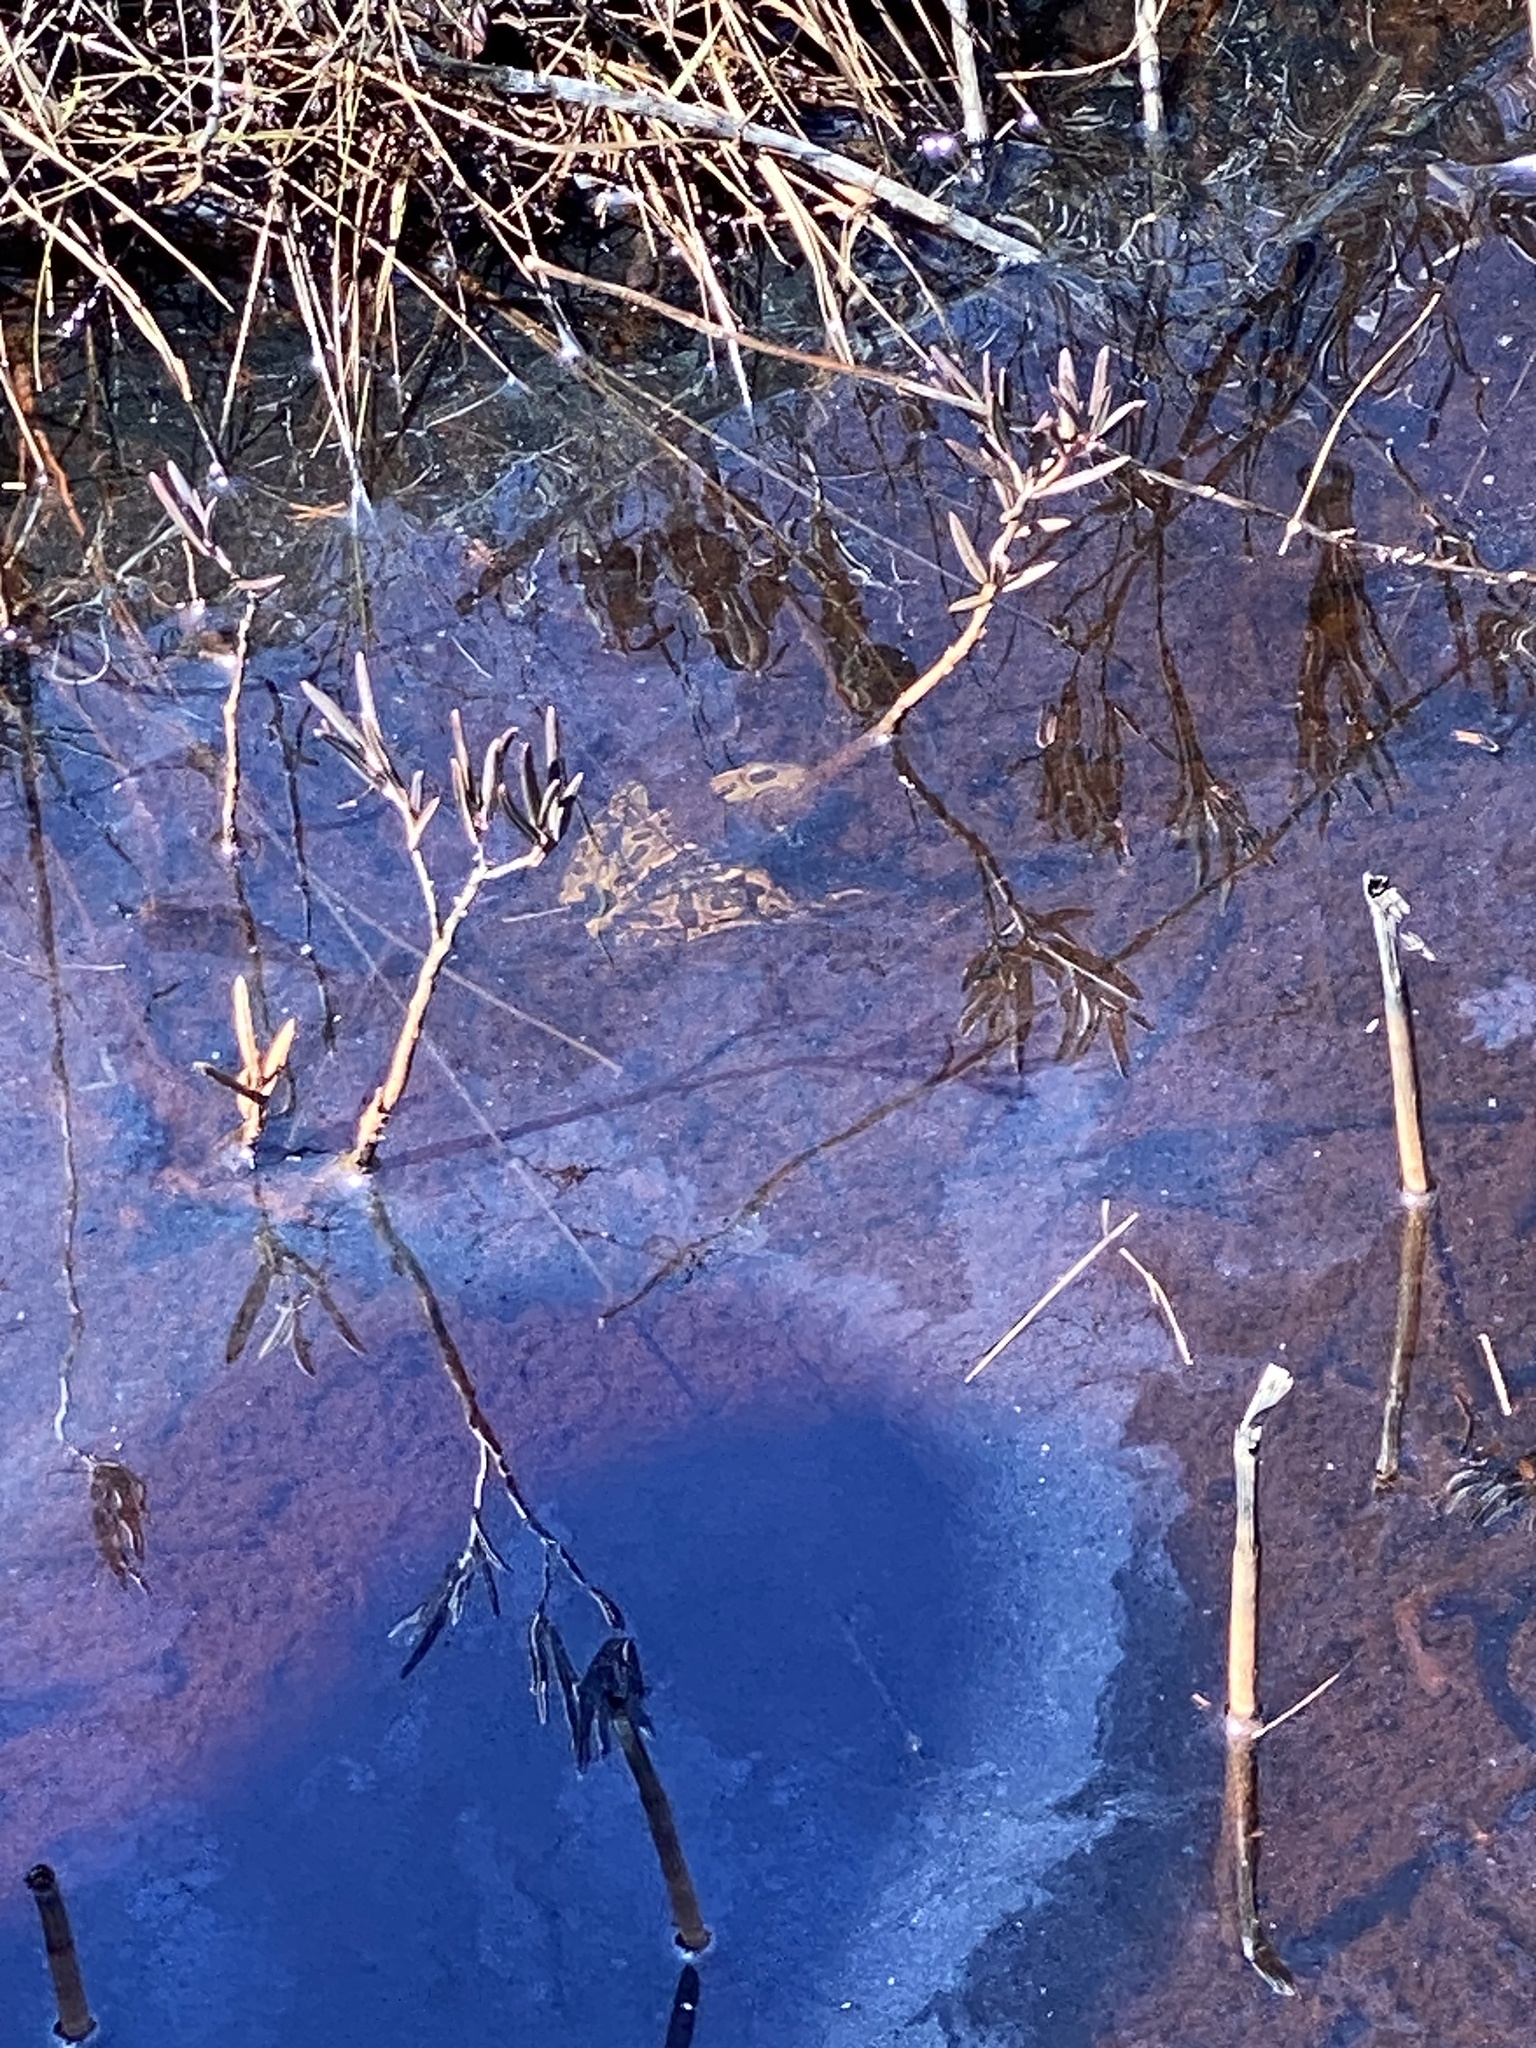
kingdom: Animalia
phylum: Chordata
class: Amphibia
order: Anura
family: Ranidae
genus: Lithobates
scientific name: Lithobates pipiens
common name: Northern leopard frog
